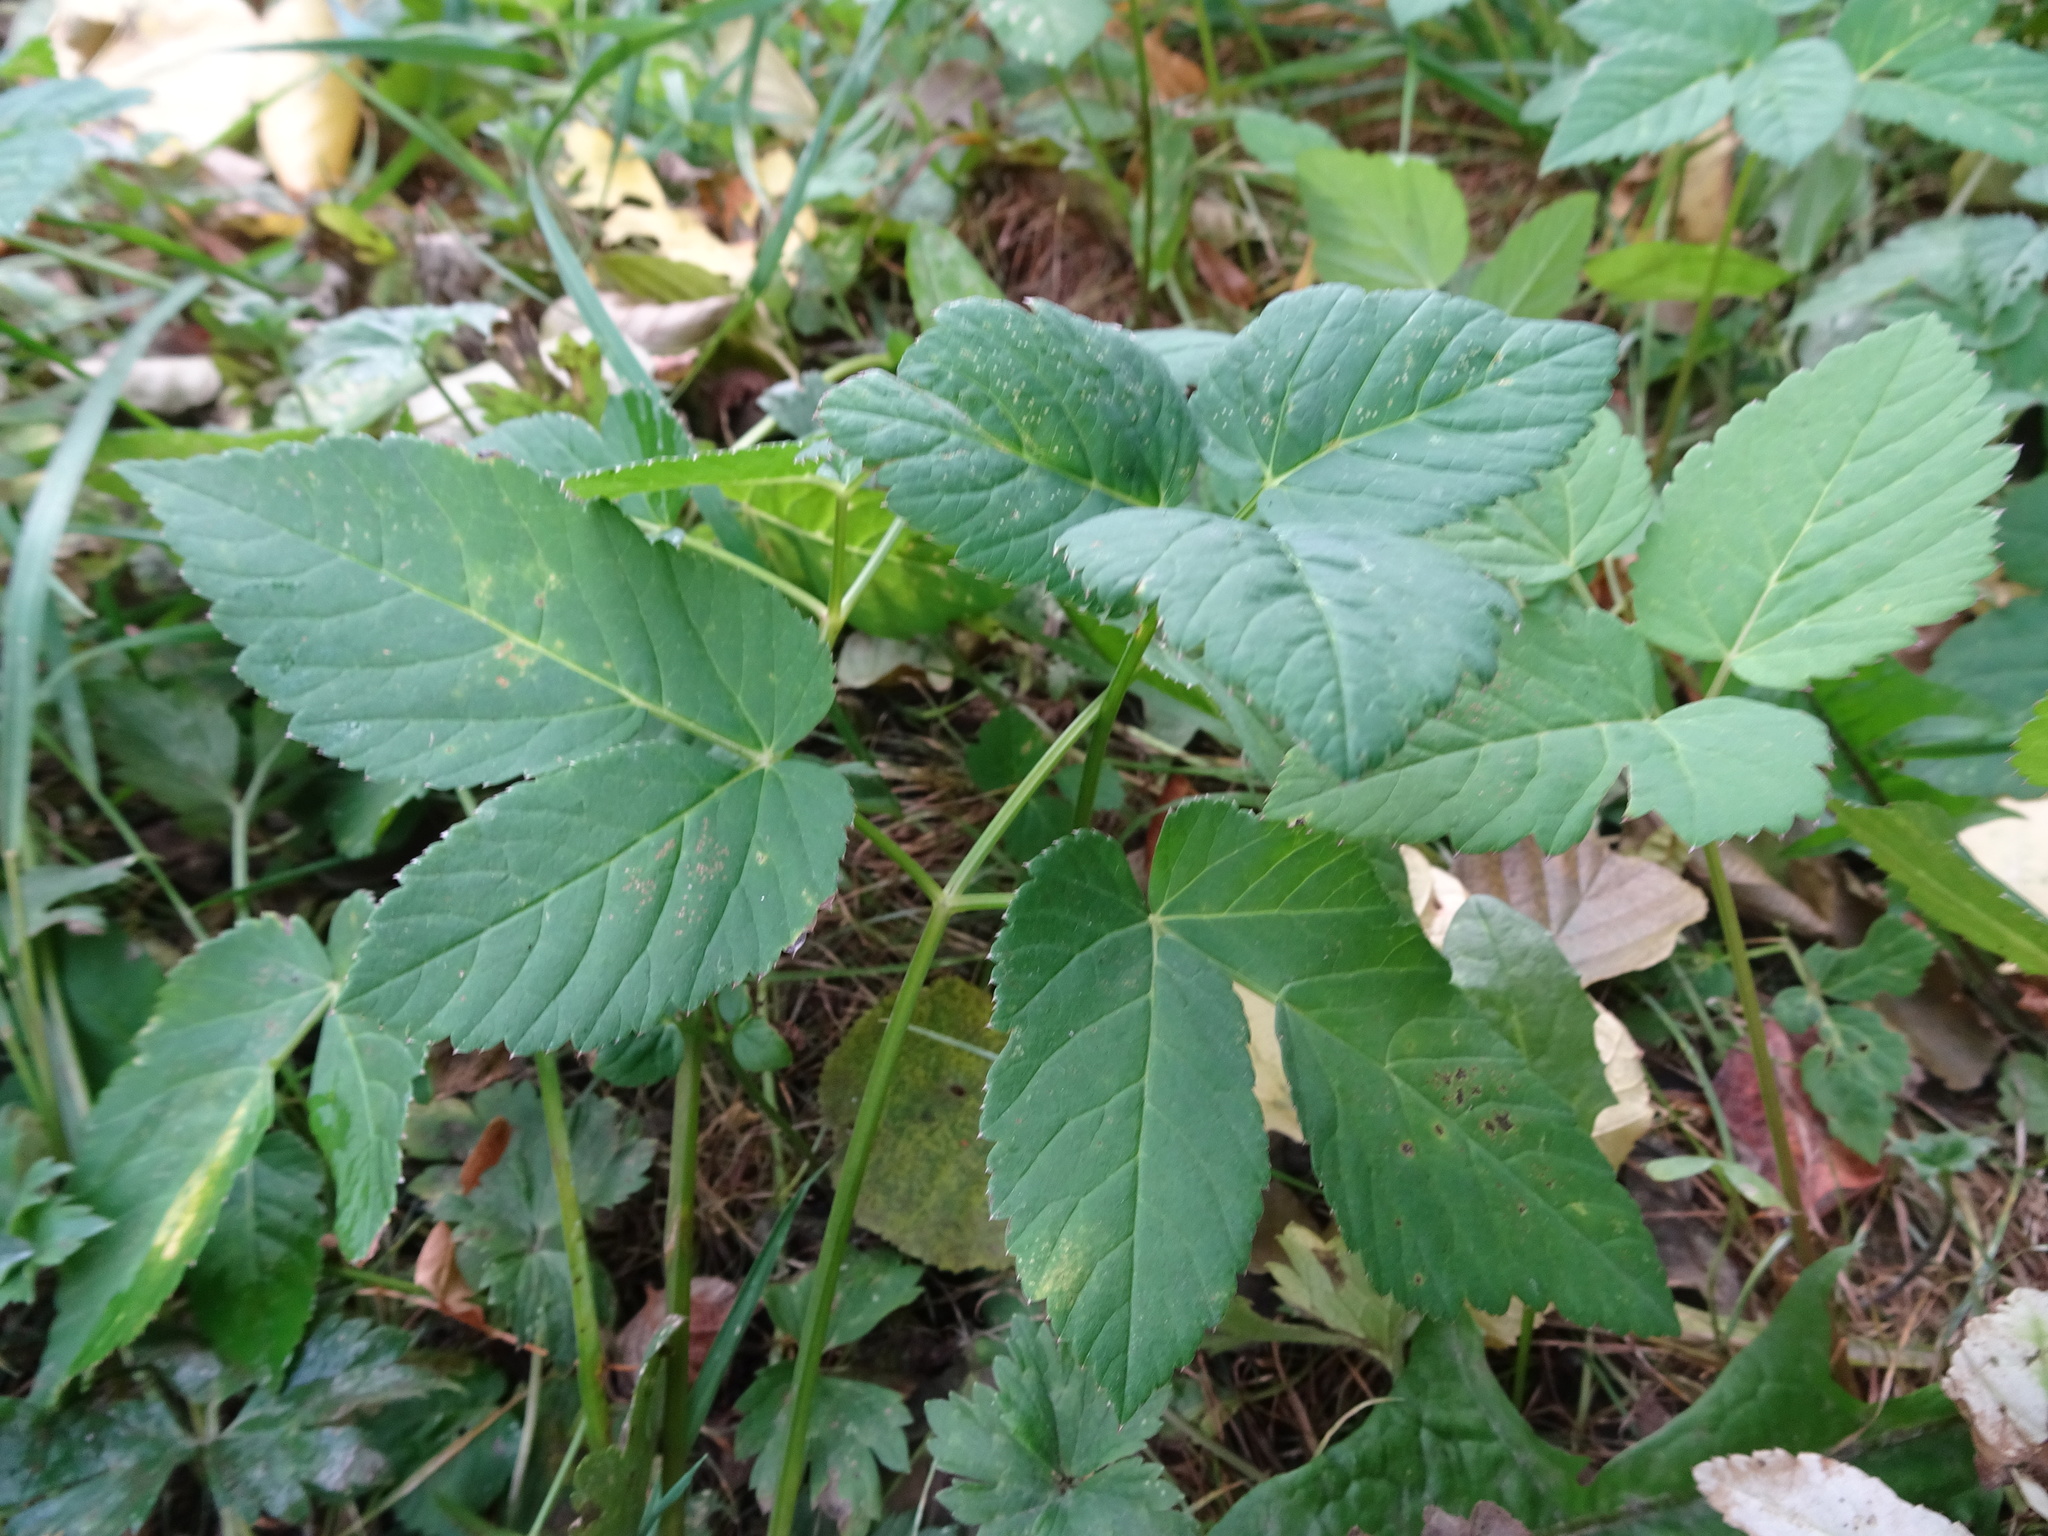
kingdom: Plantae
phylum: Tracheophyta
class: Magnoliopsida
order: Apiales
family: Apiaceae
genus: Aegopodium
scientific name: Aegopodium podagraria
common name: Ground-elder
